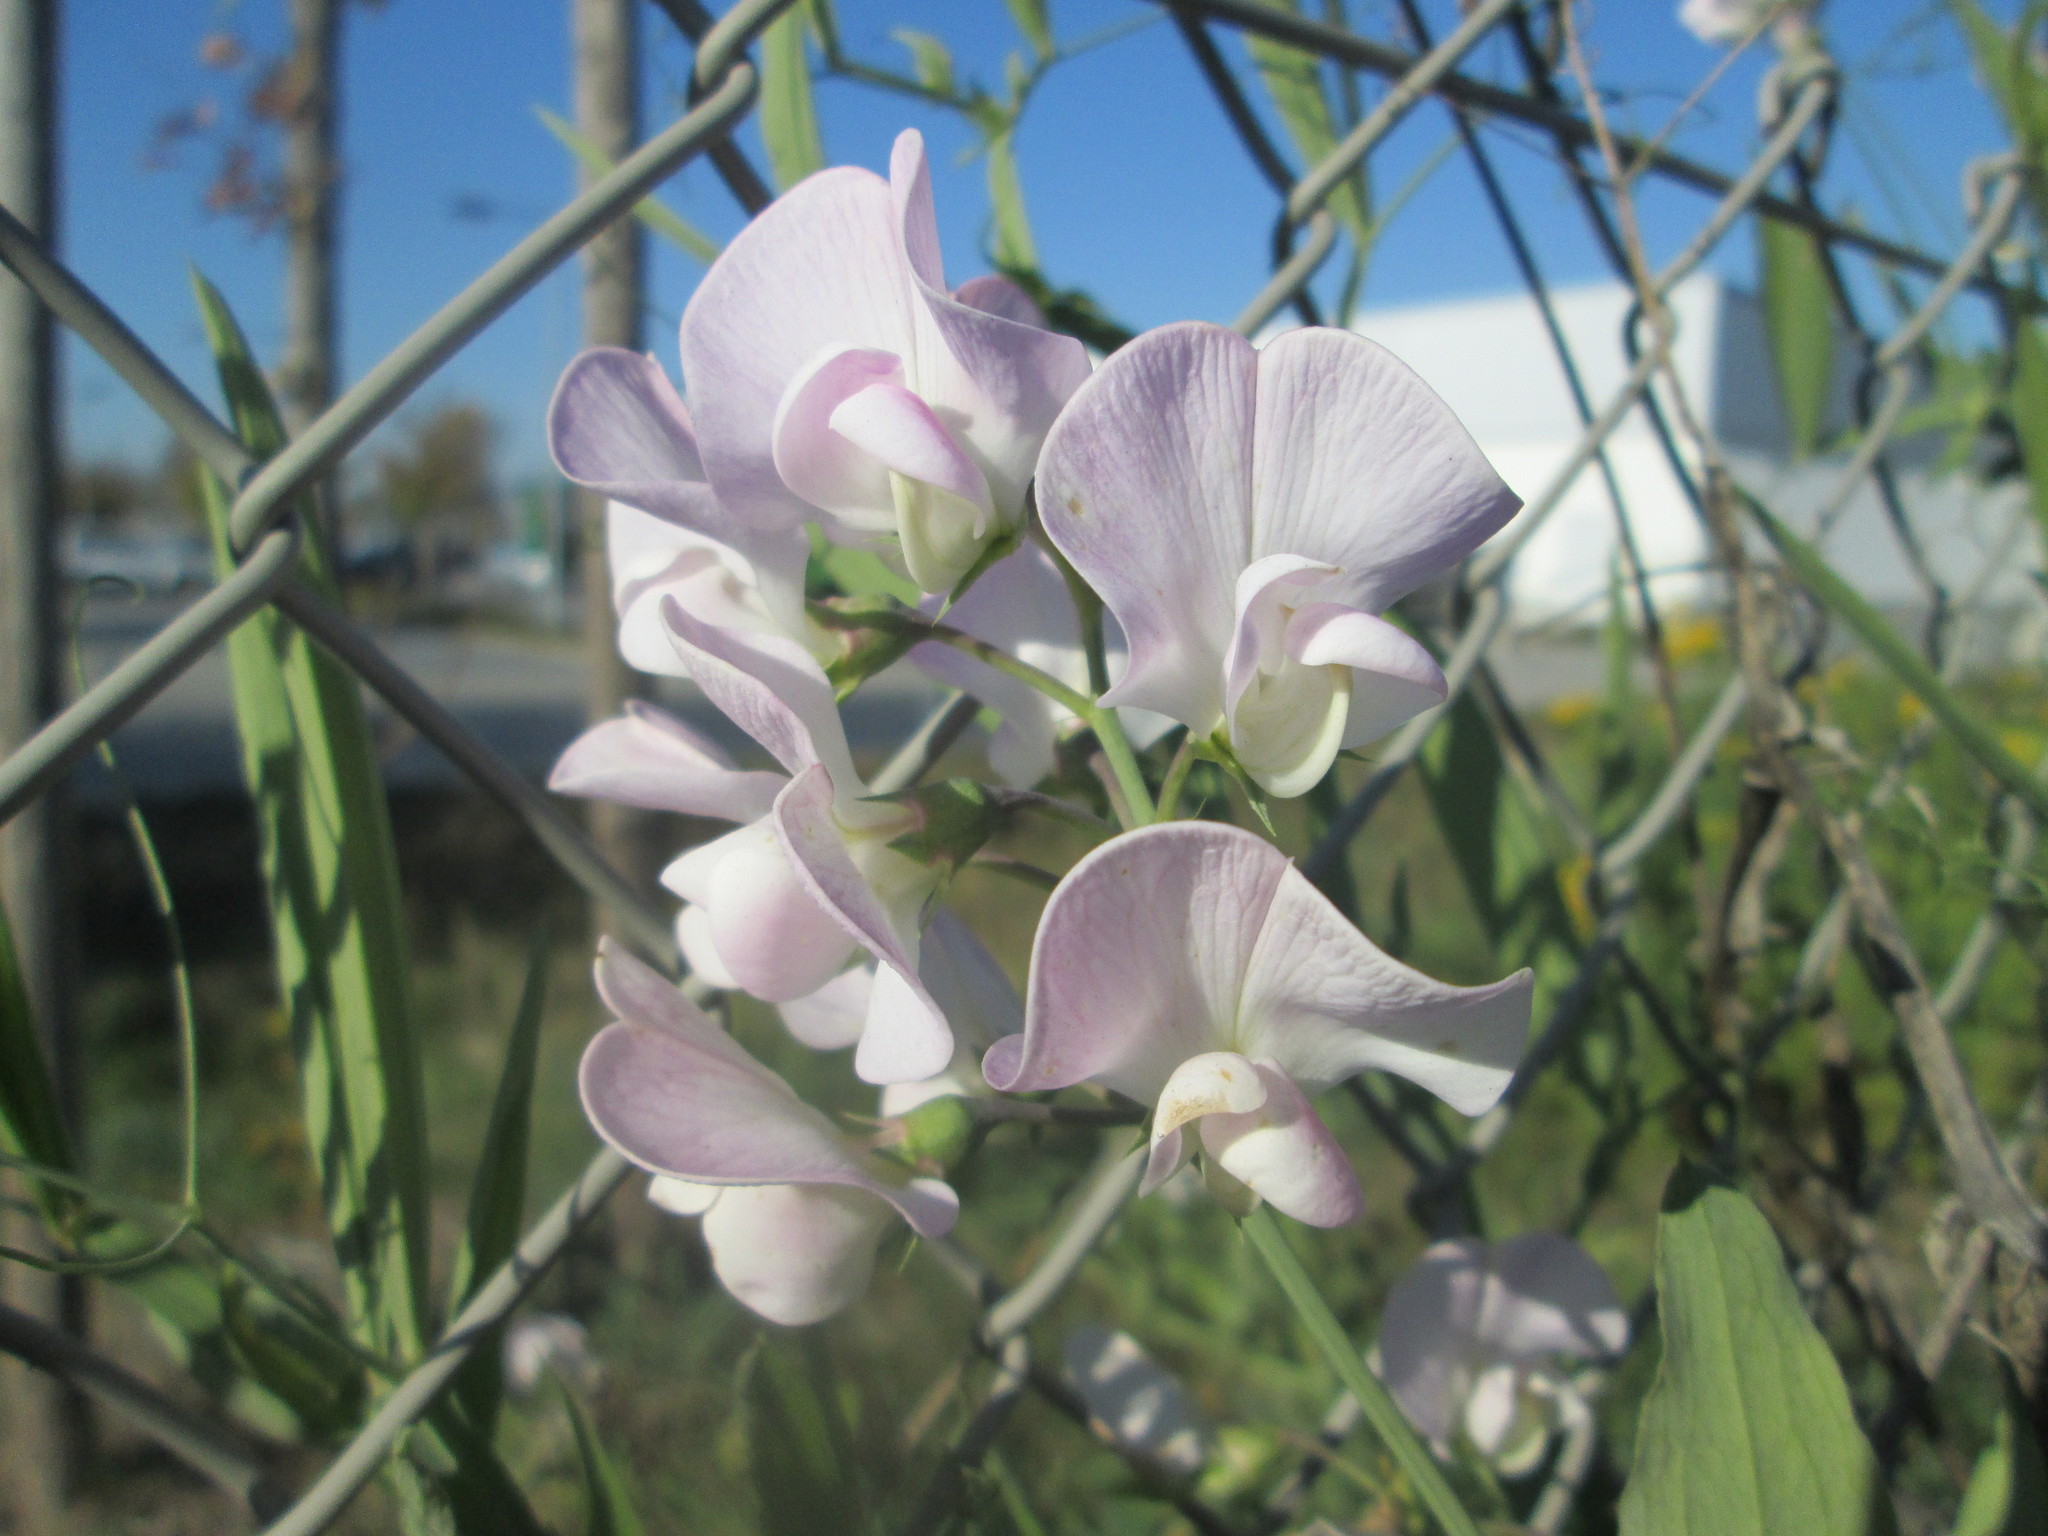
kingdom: Plantae
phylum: Tracheophyta
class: Magnoliopsida
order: Fabales
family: Fabaceae
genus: Lathyrus
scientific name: Lathyrus latifolius
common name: Perennial pea
